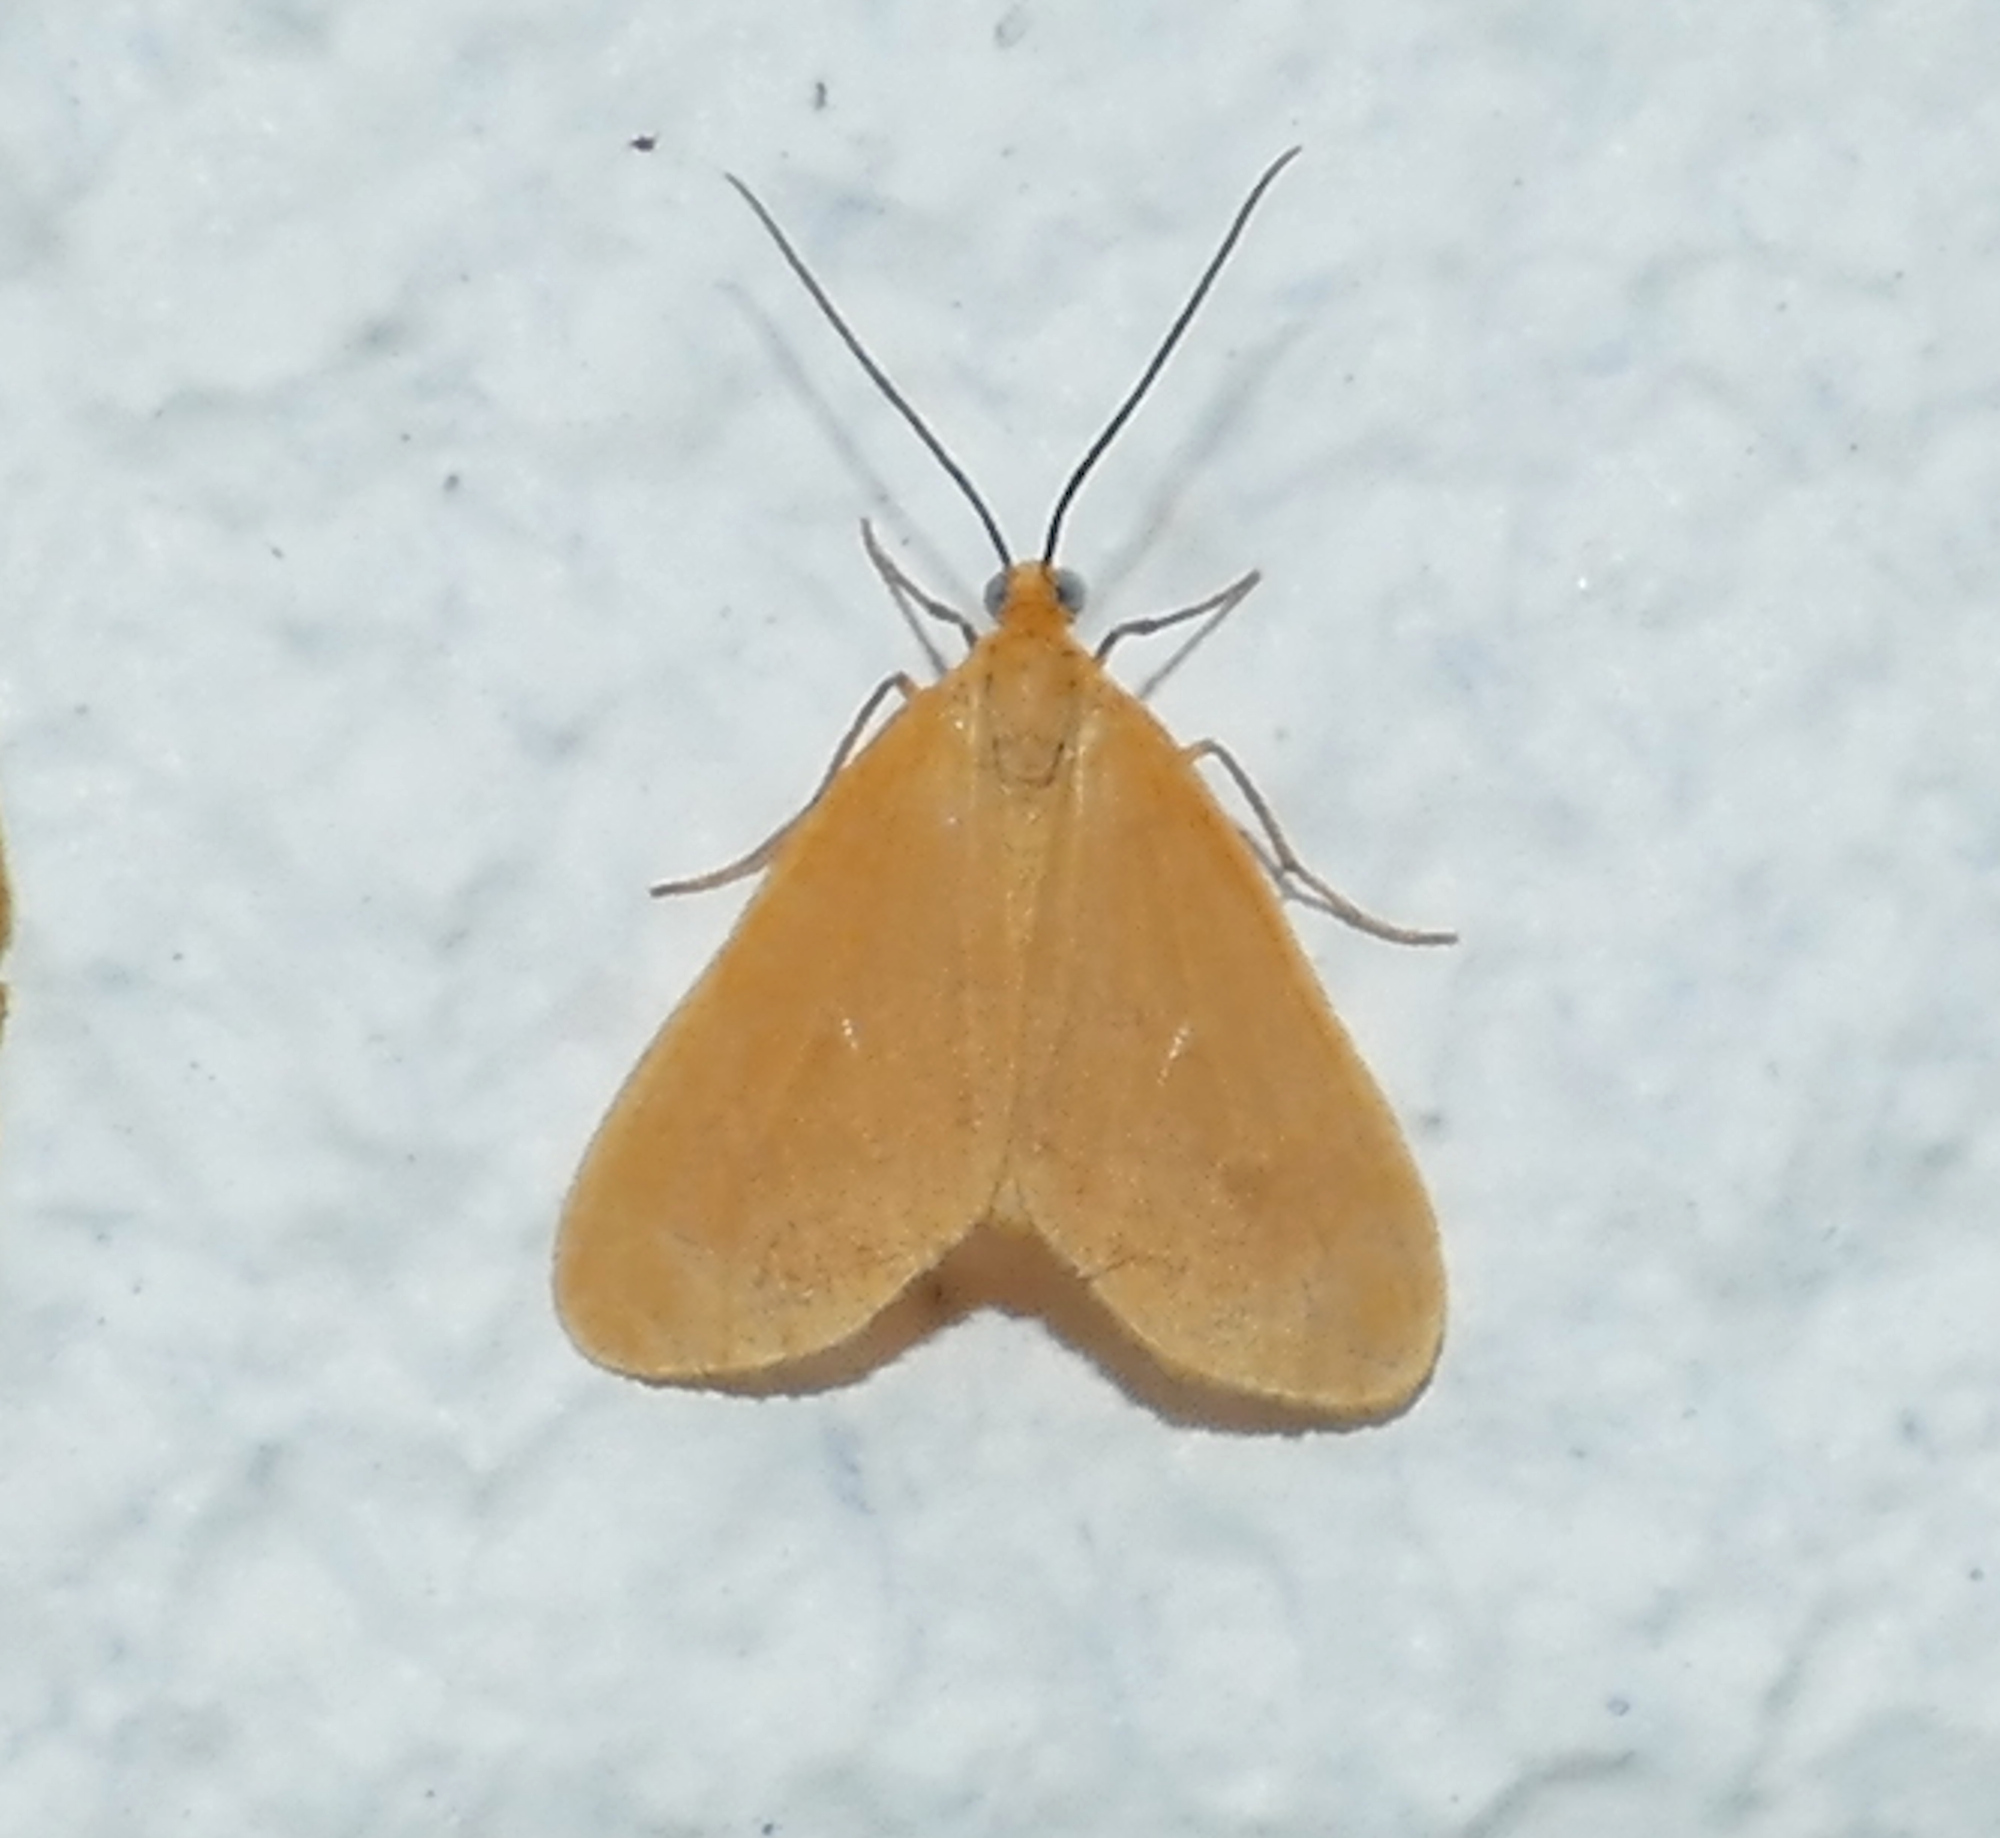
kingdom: Animalia
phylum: Arthropoda
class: Insecta
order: Lepidoptera
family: Geometridae
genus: Eubaphe
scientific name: Eubaphe unicolor
